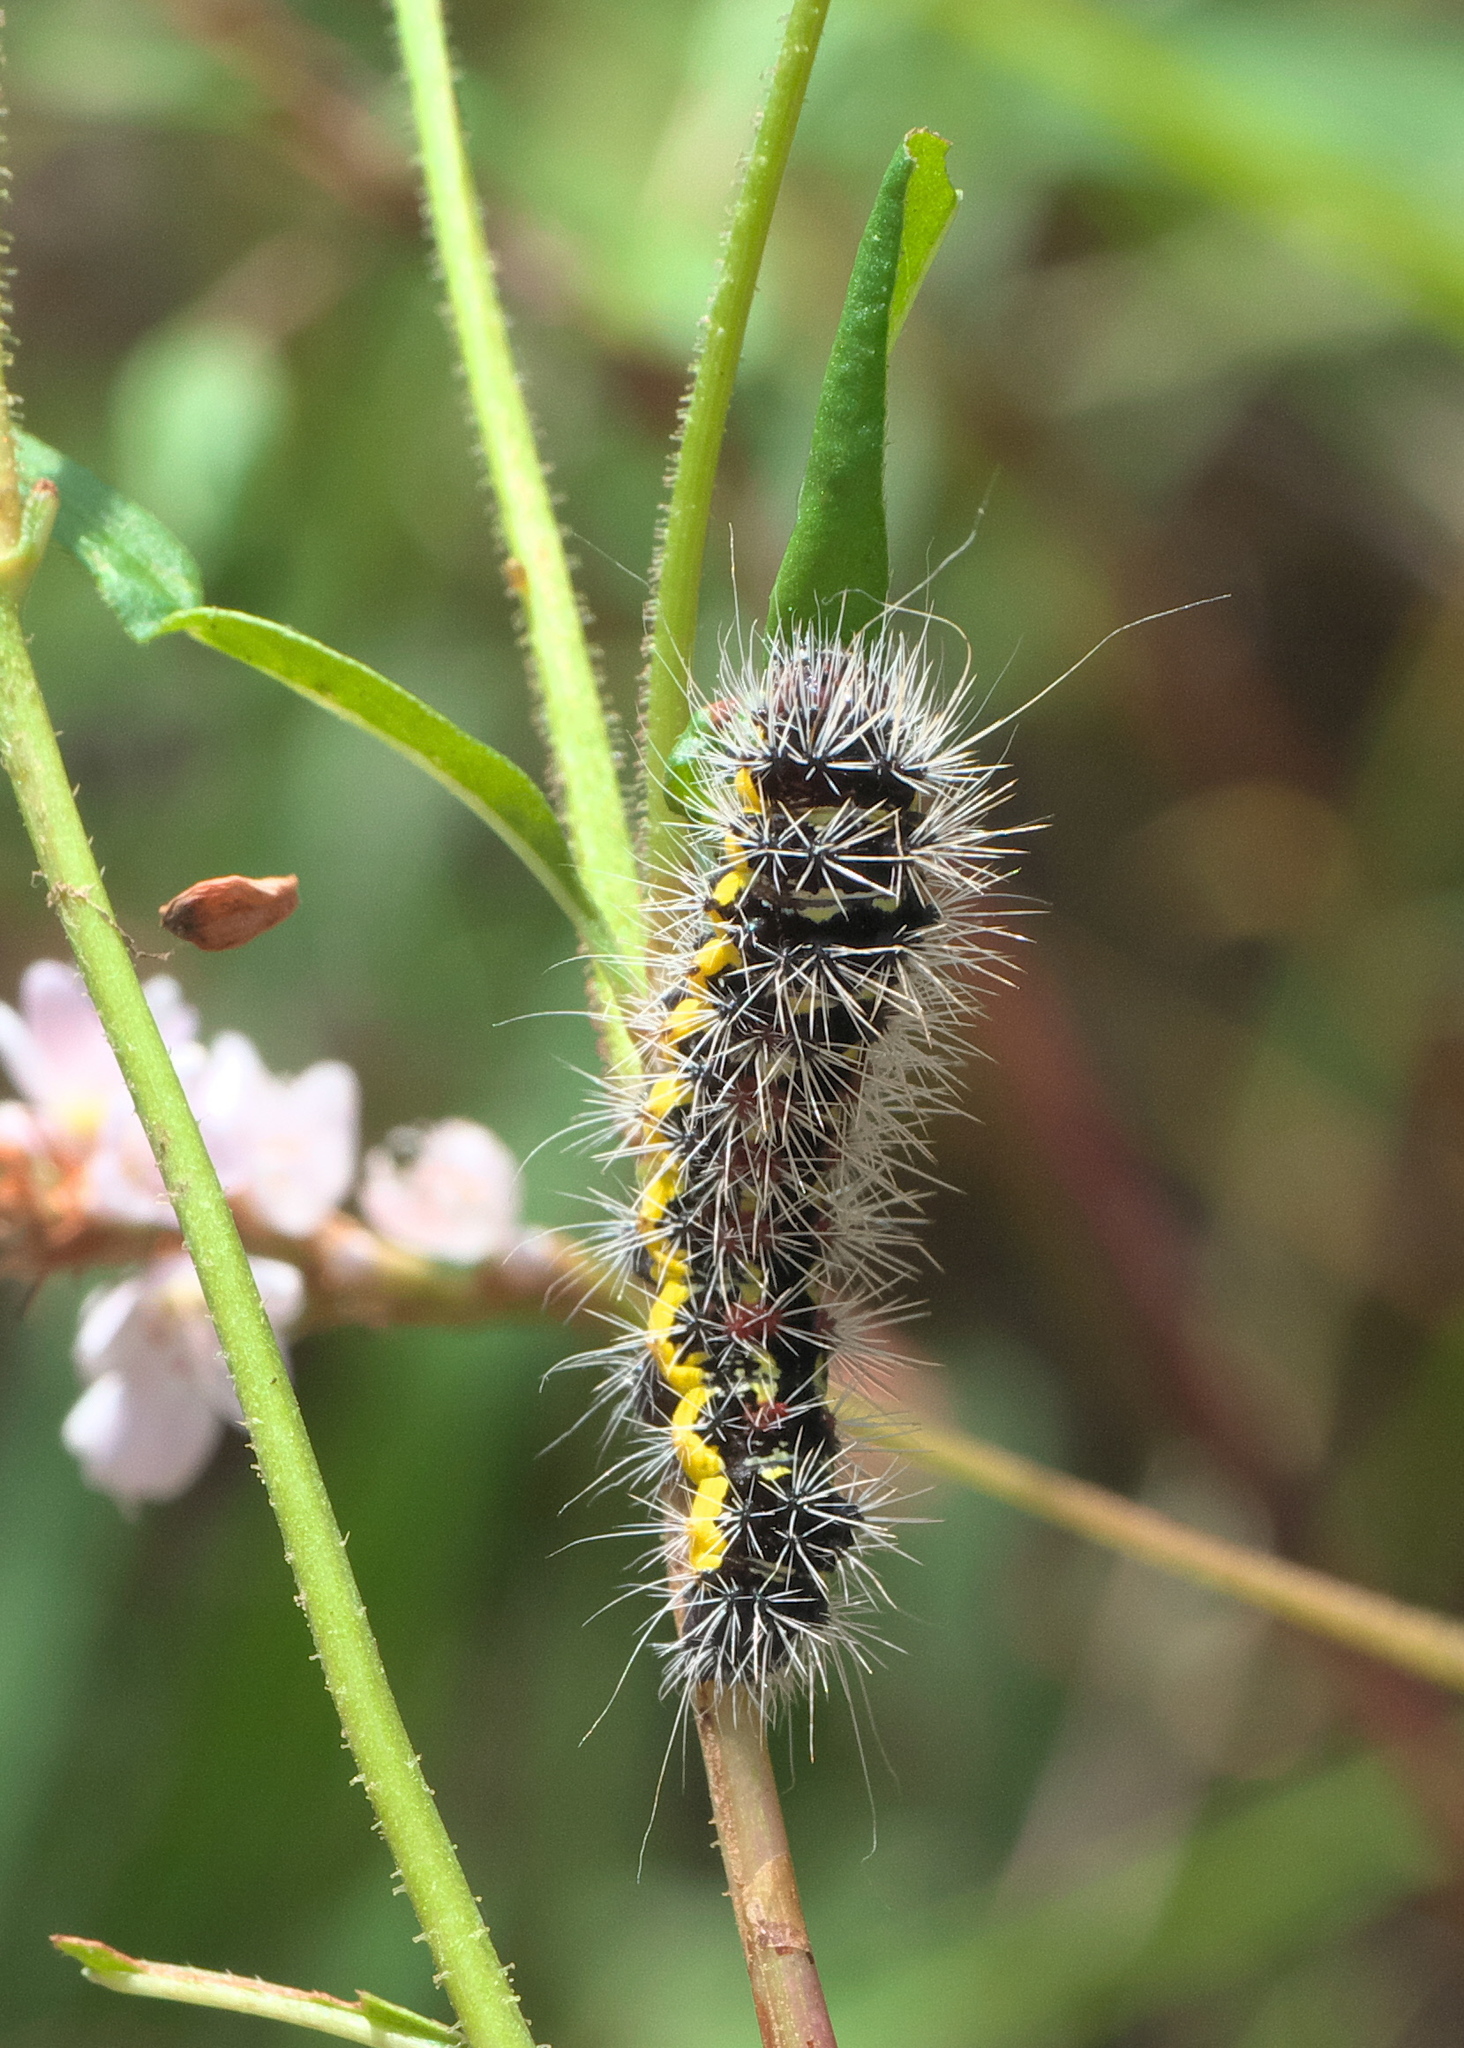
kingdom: Animalia
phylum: Arthropoda
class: Insecta
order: Lepidoptera
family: Noctuidae
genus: Acronicta
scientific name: Acronicta oblinita
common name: Smeared dagger
